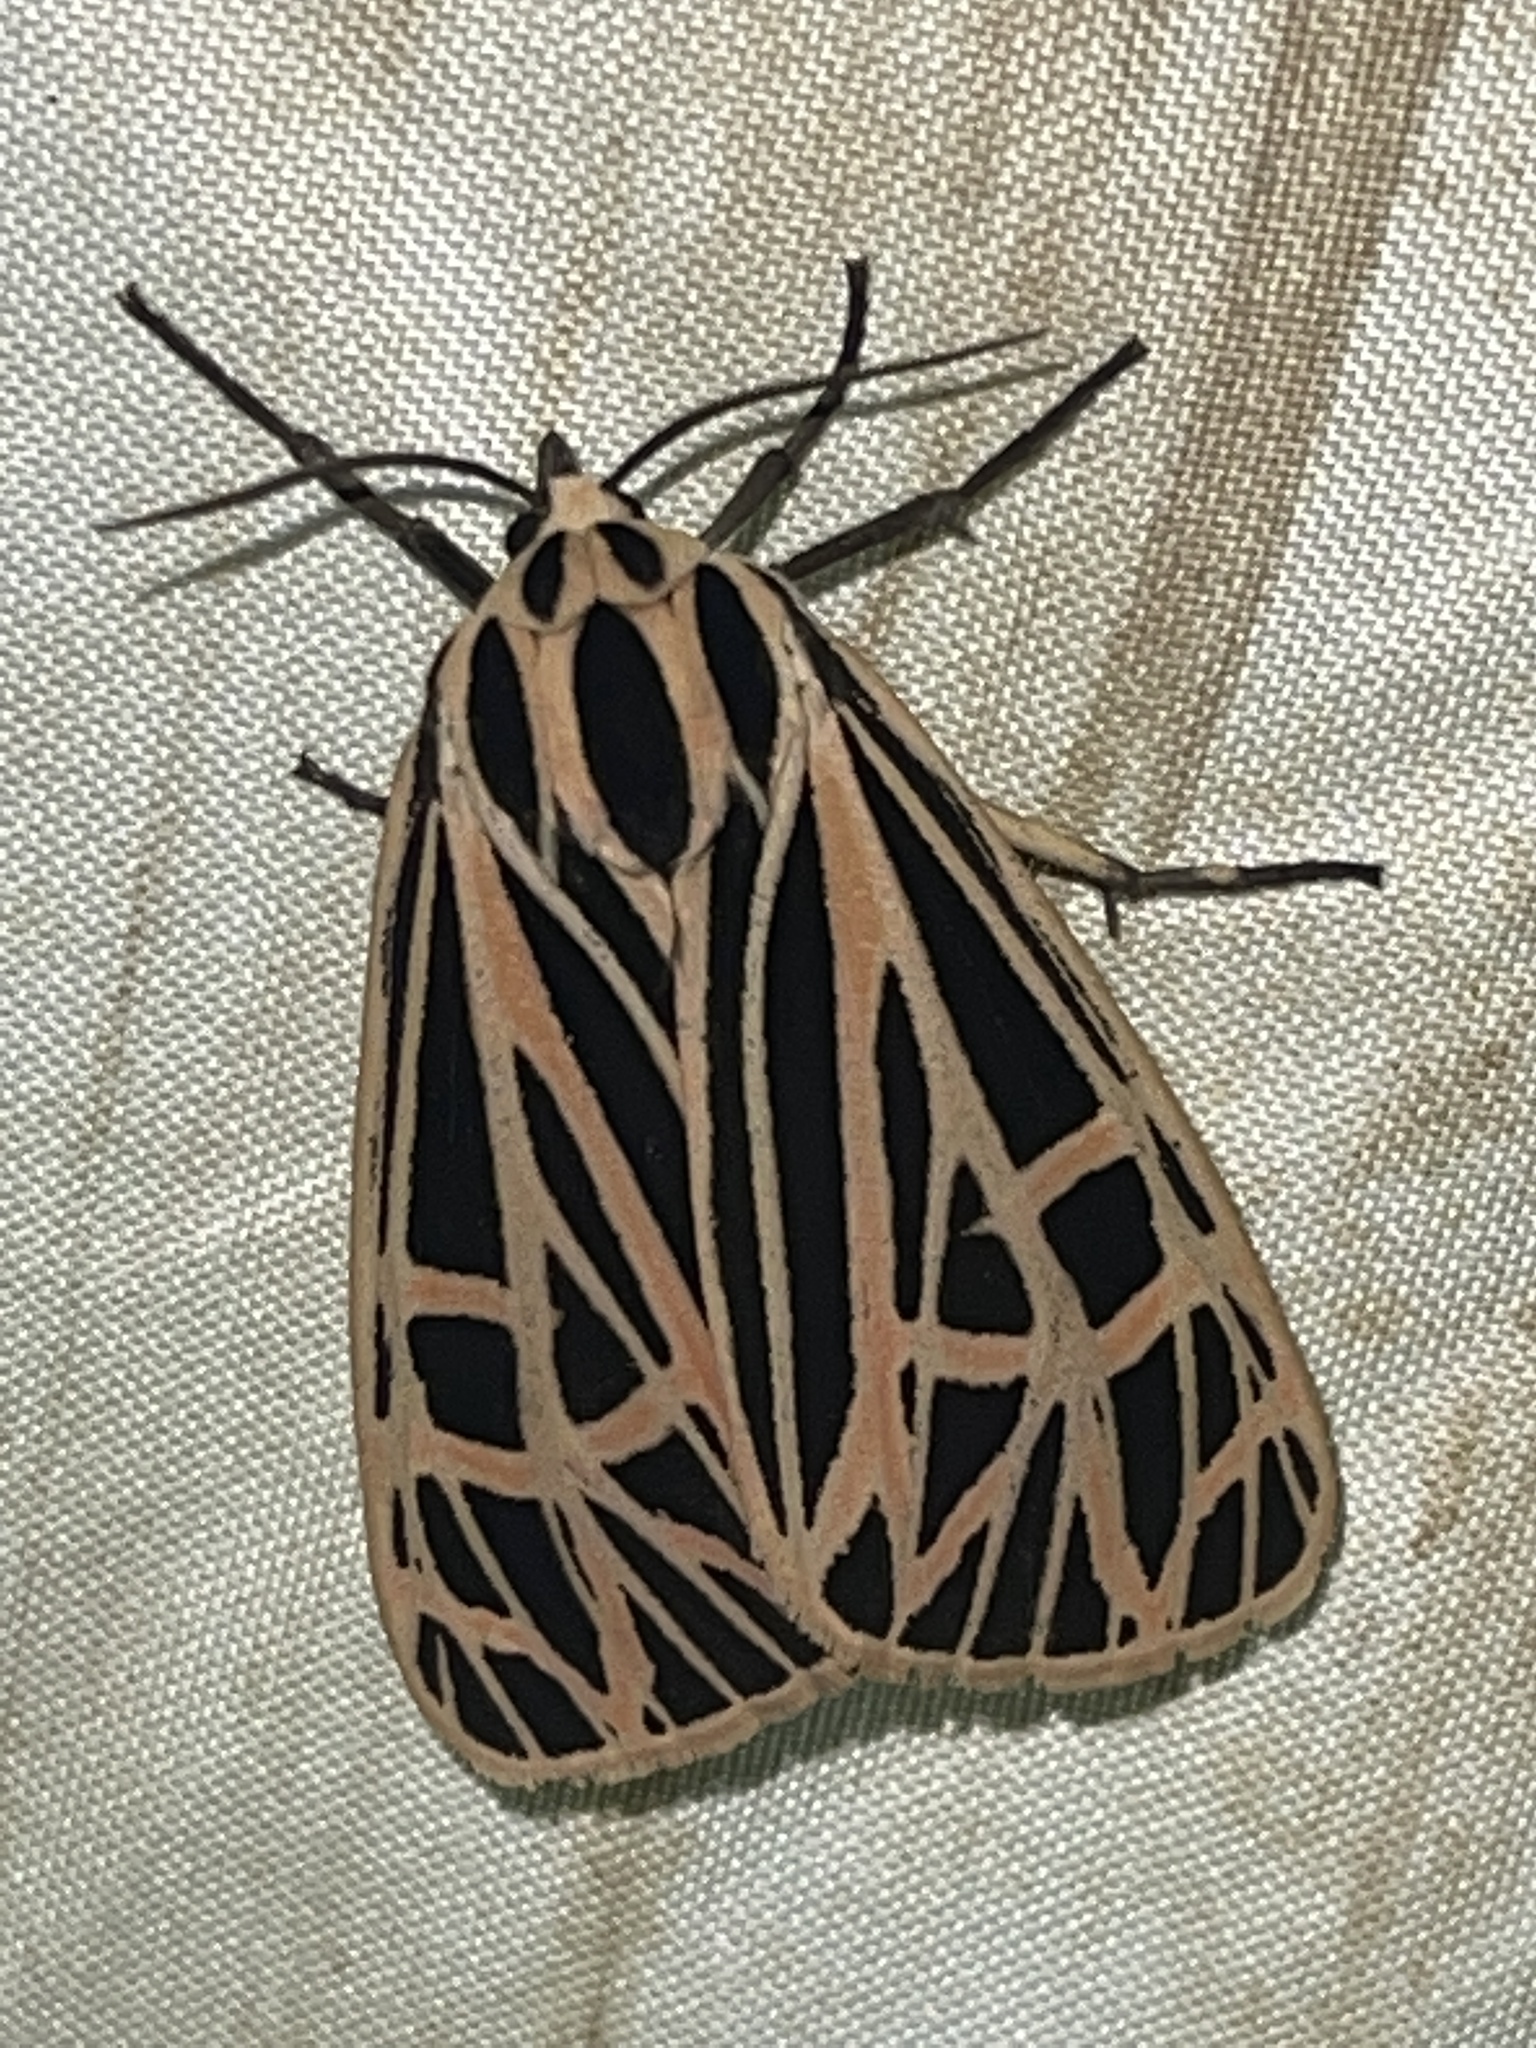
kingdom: Animalia
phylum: Arthropoda
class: Insecta
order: Lepidoptera
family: Erebidae
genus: Grammia
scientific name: Grammia virgo
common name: Virgin tiger moth
